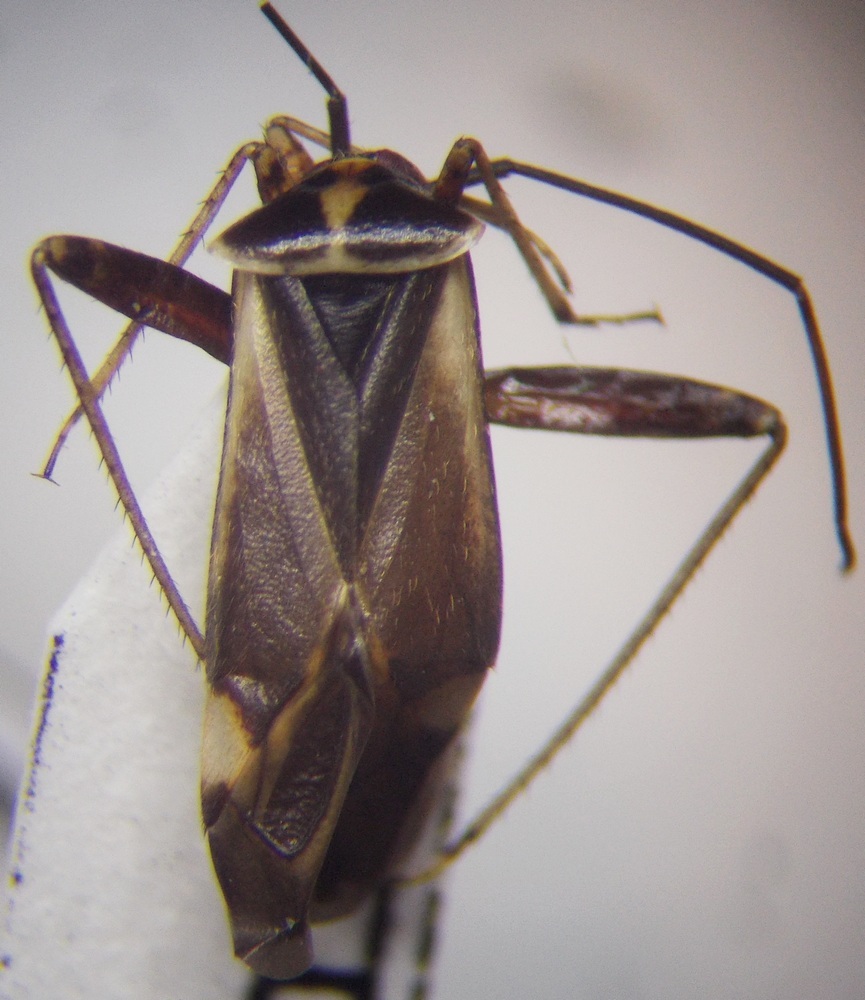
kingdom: Animalia
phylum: Arthropoda
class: Insecta
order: Hemiptera
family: Miridae
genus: Adelphocoris
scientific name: Adelphocoris seticornis
